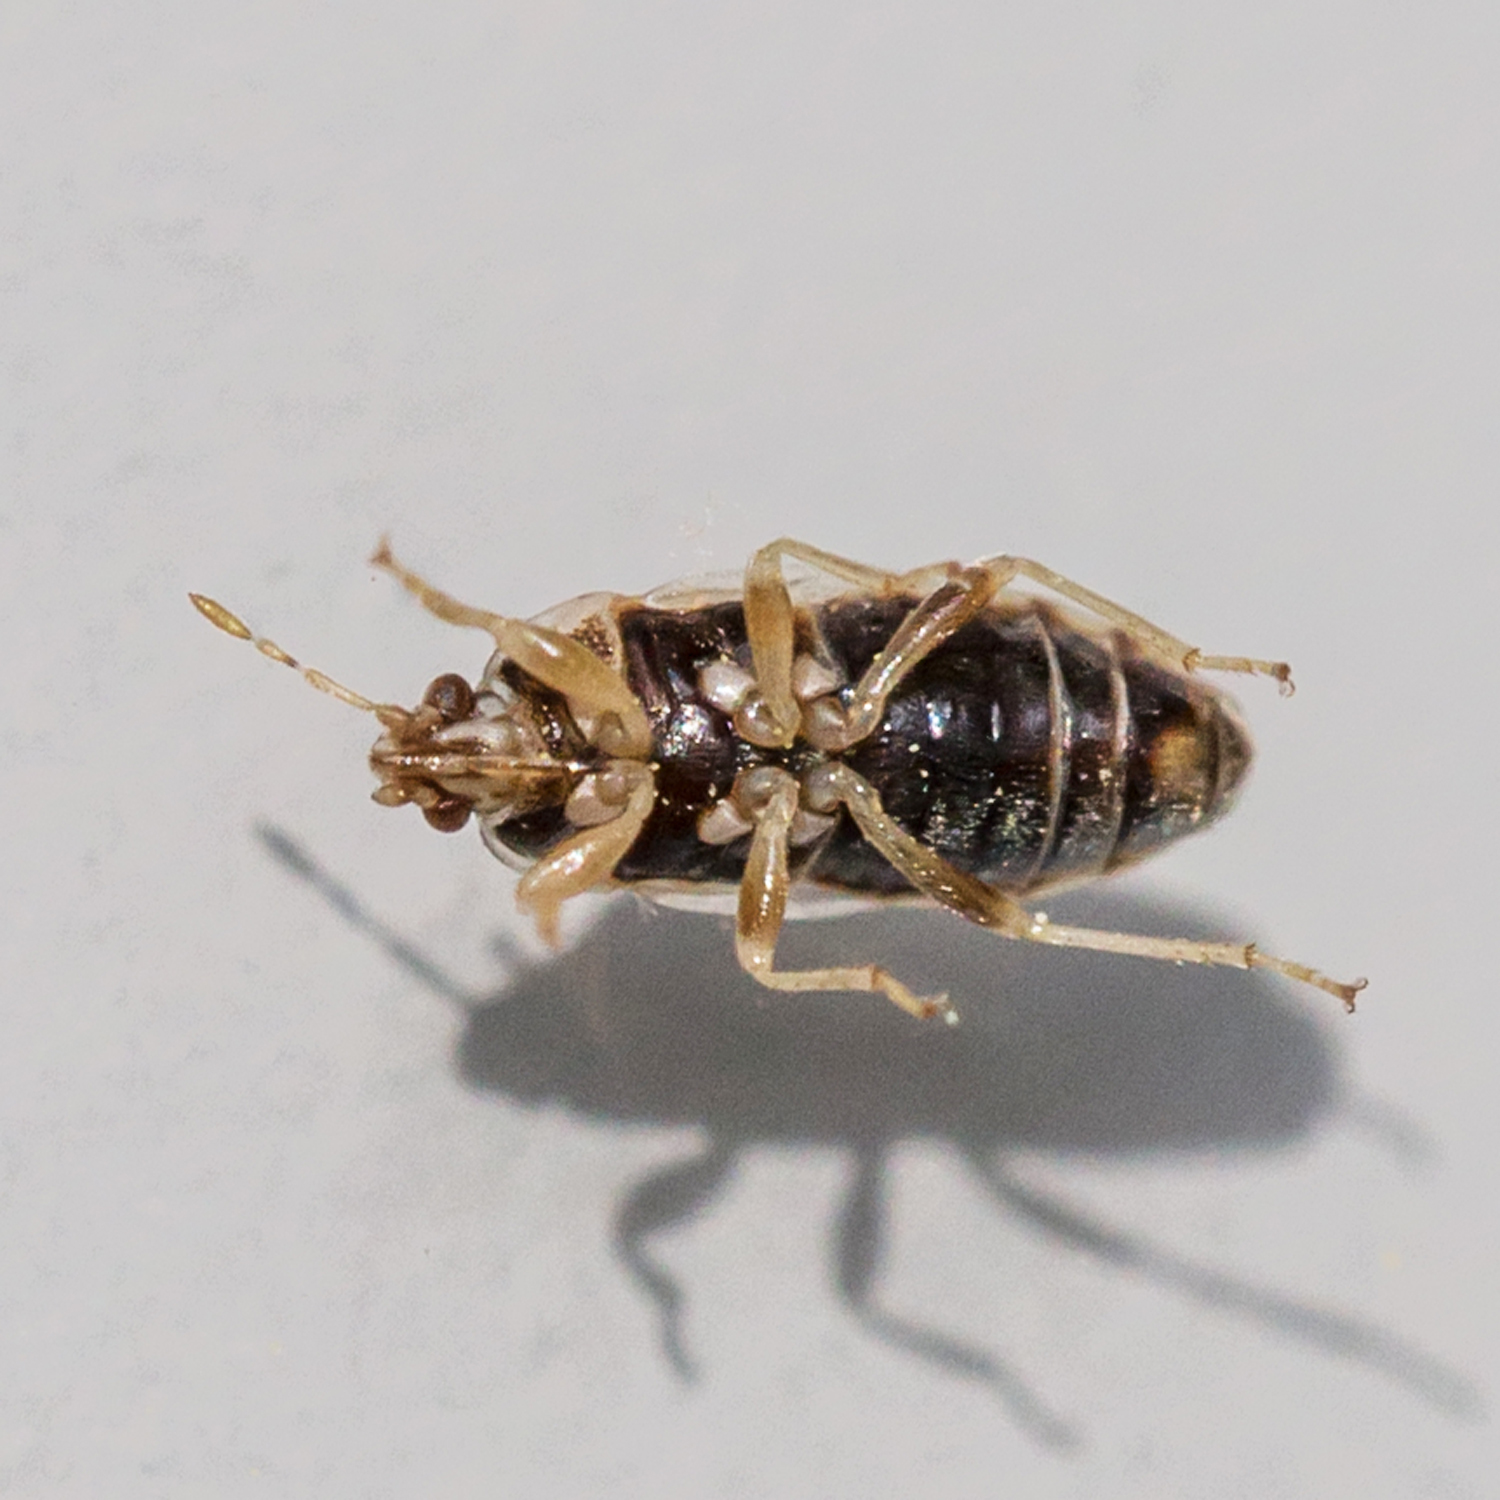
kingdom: Animalia
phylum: Arthropoda
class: Insecta
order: Hemiptera
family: Artheneidae
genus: Holcocranum
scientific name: Holcocranum saturejae
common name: Cattail bug
